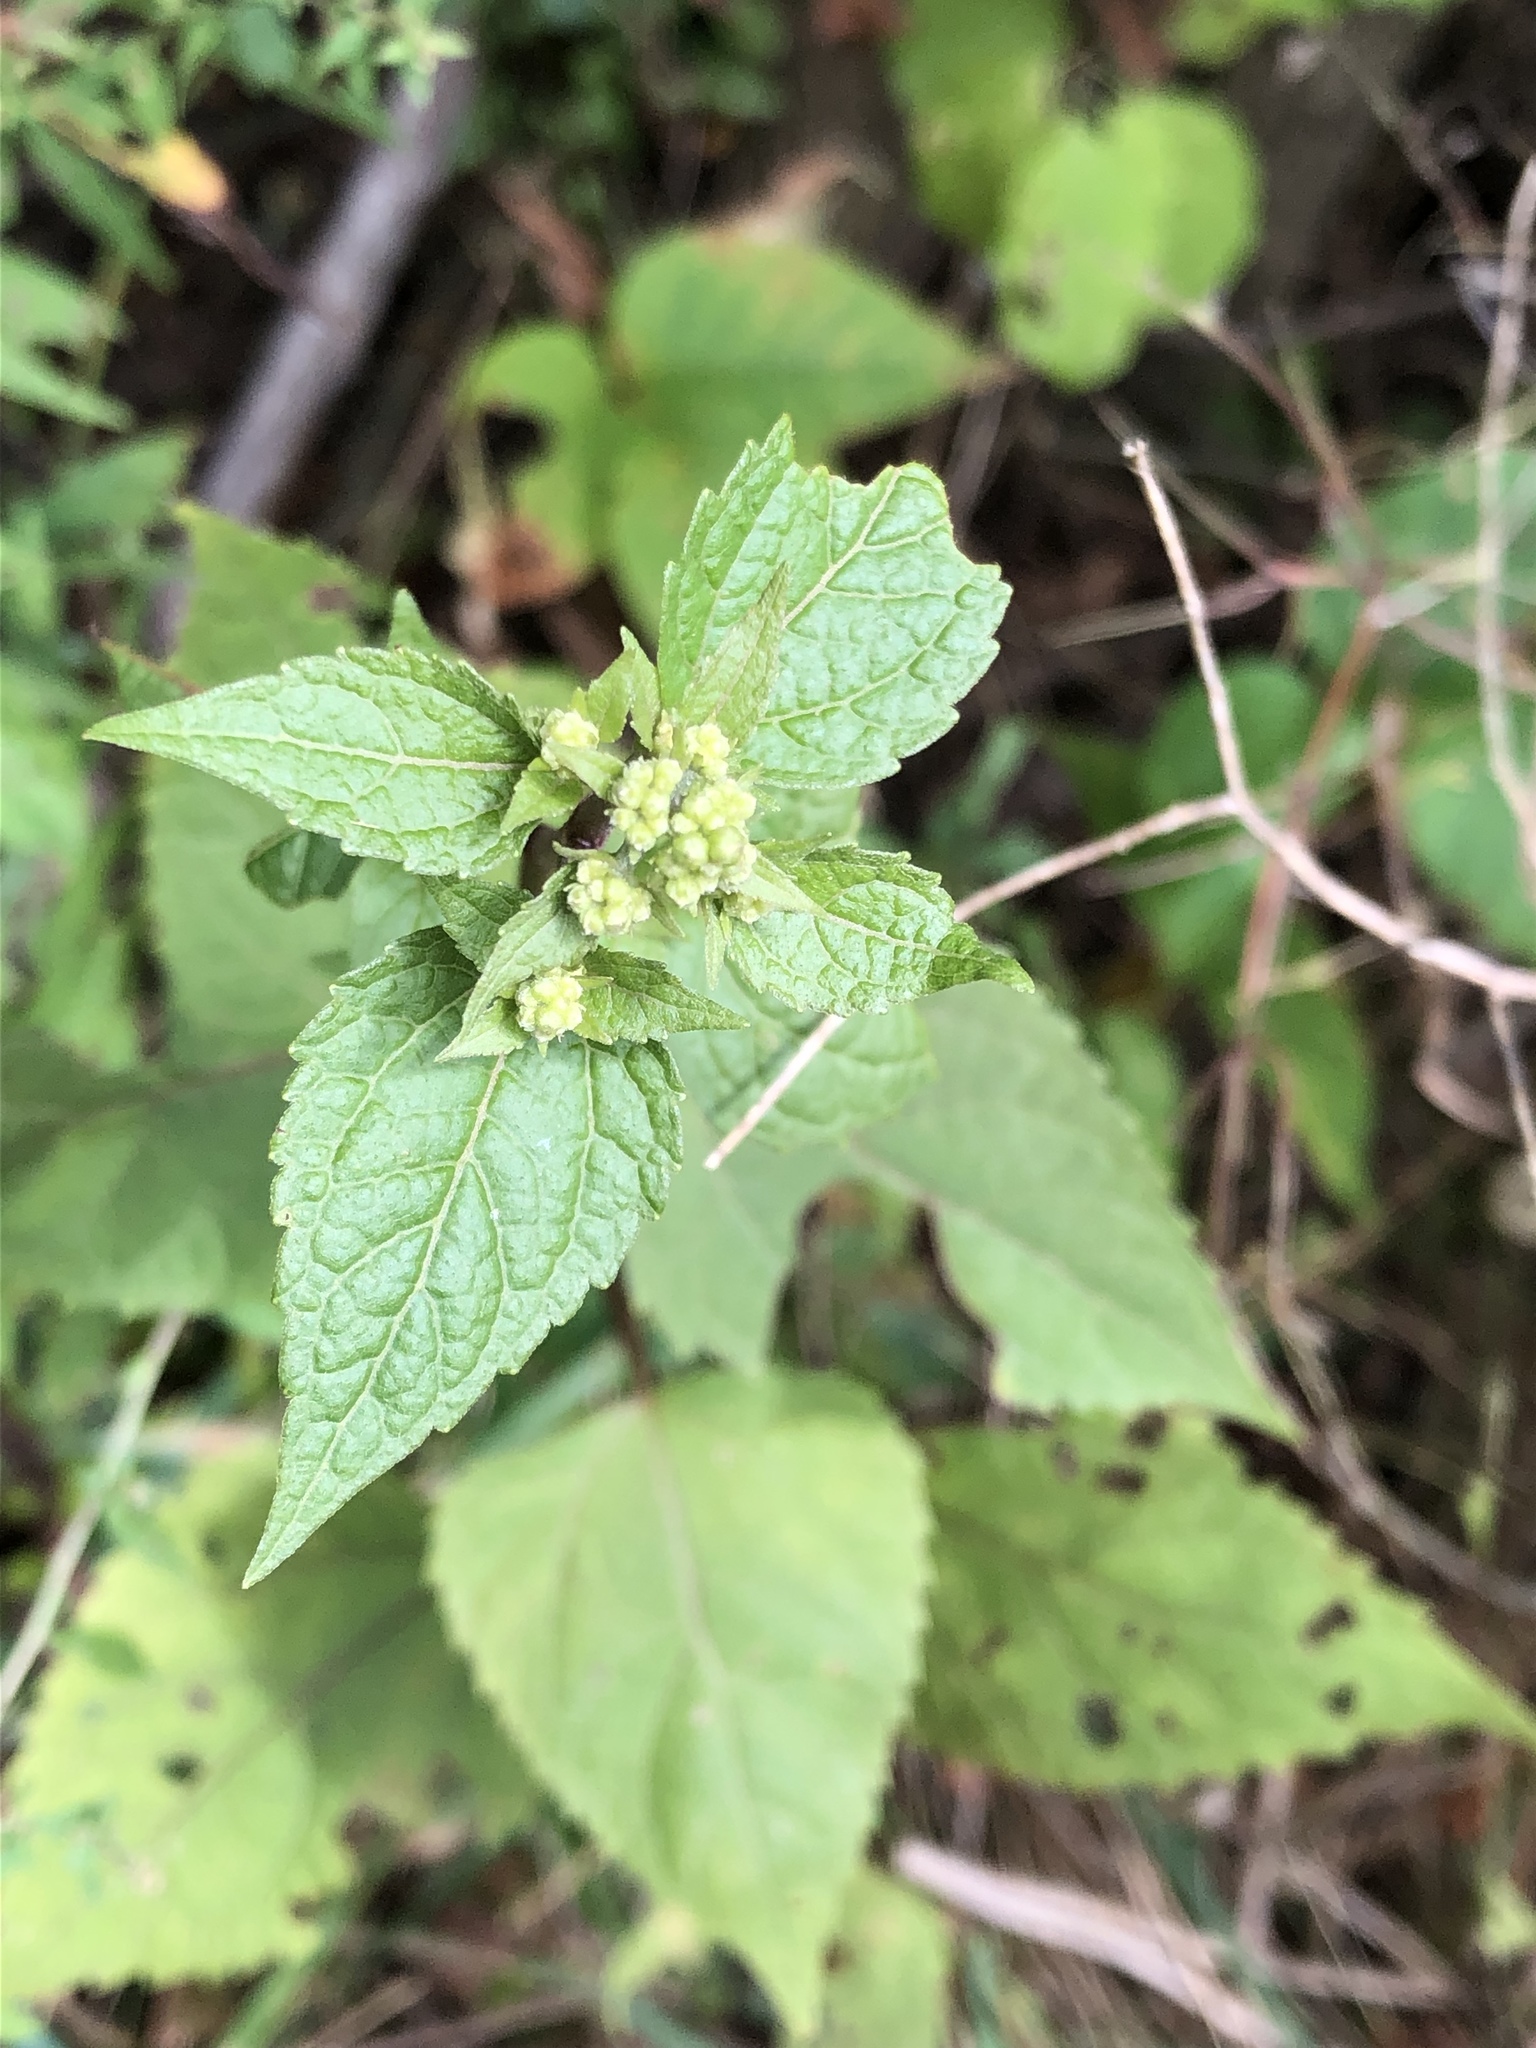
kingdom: Plantae
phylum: Tracheophyta
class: Magnoliopsida
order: Asterales
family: Asteraceae
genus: Conoclinium
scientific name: Conoclinium coelestinum
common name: Blue mistflower
